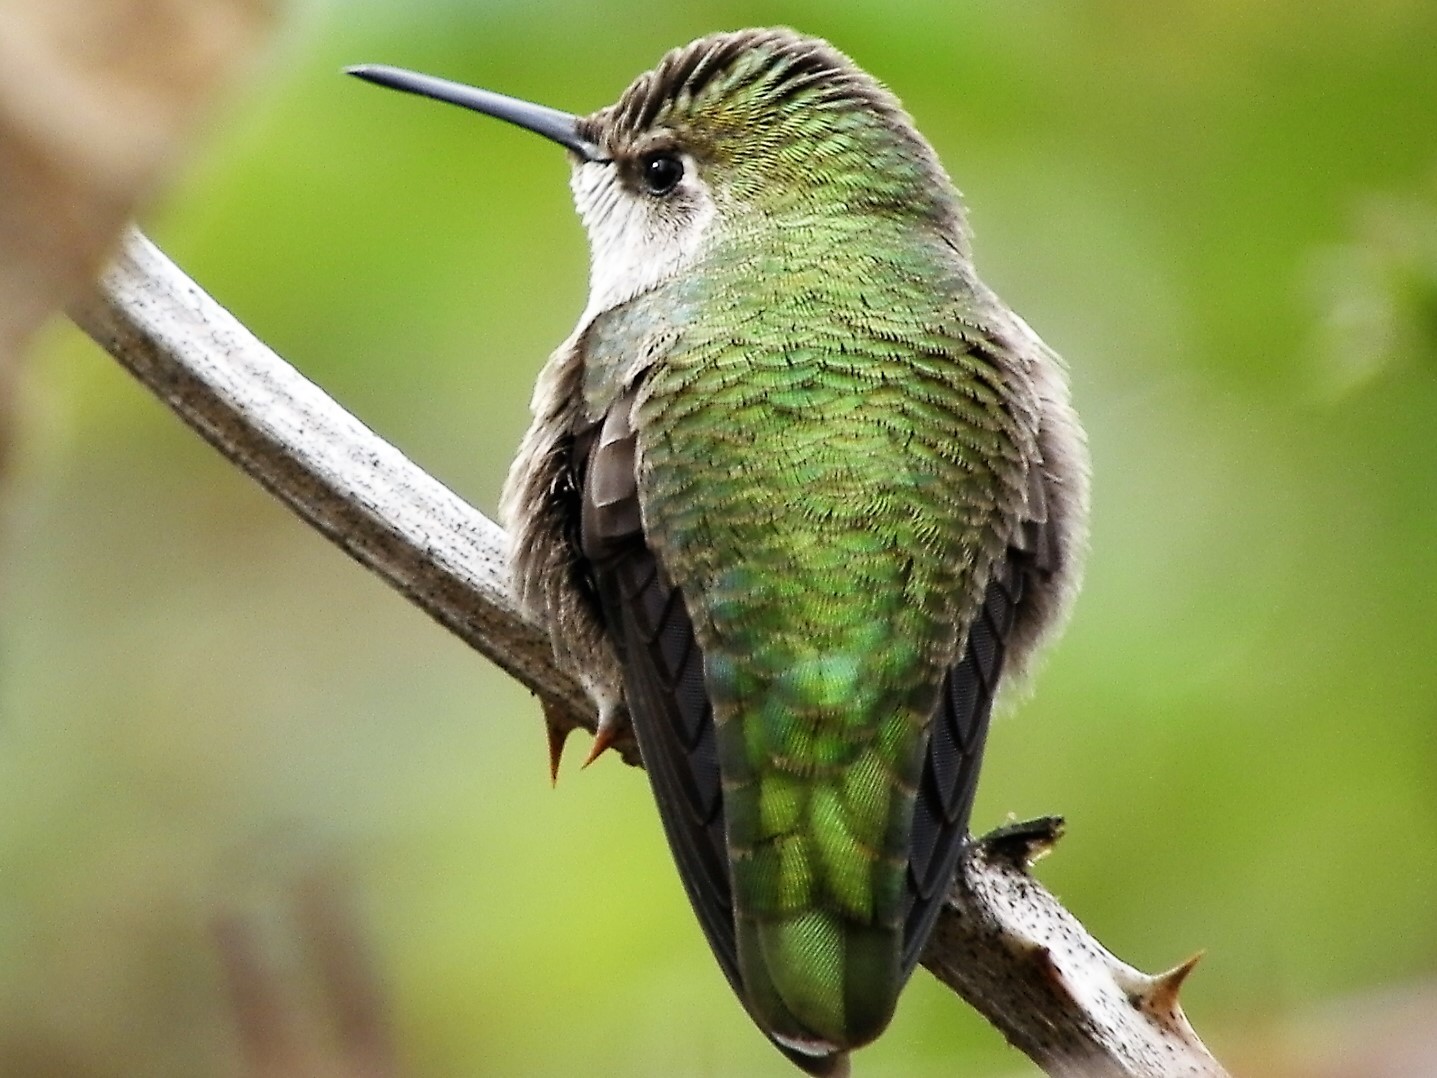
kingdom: Animalia
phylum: Chordata
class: Aves
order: Apodiformes
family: Trochilidae
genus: Calypte
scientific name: Calypte anna
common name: Anna's hummingbird
